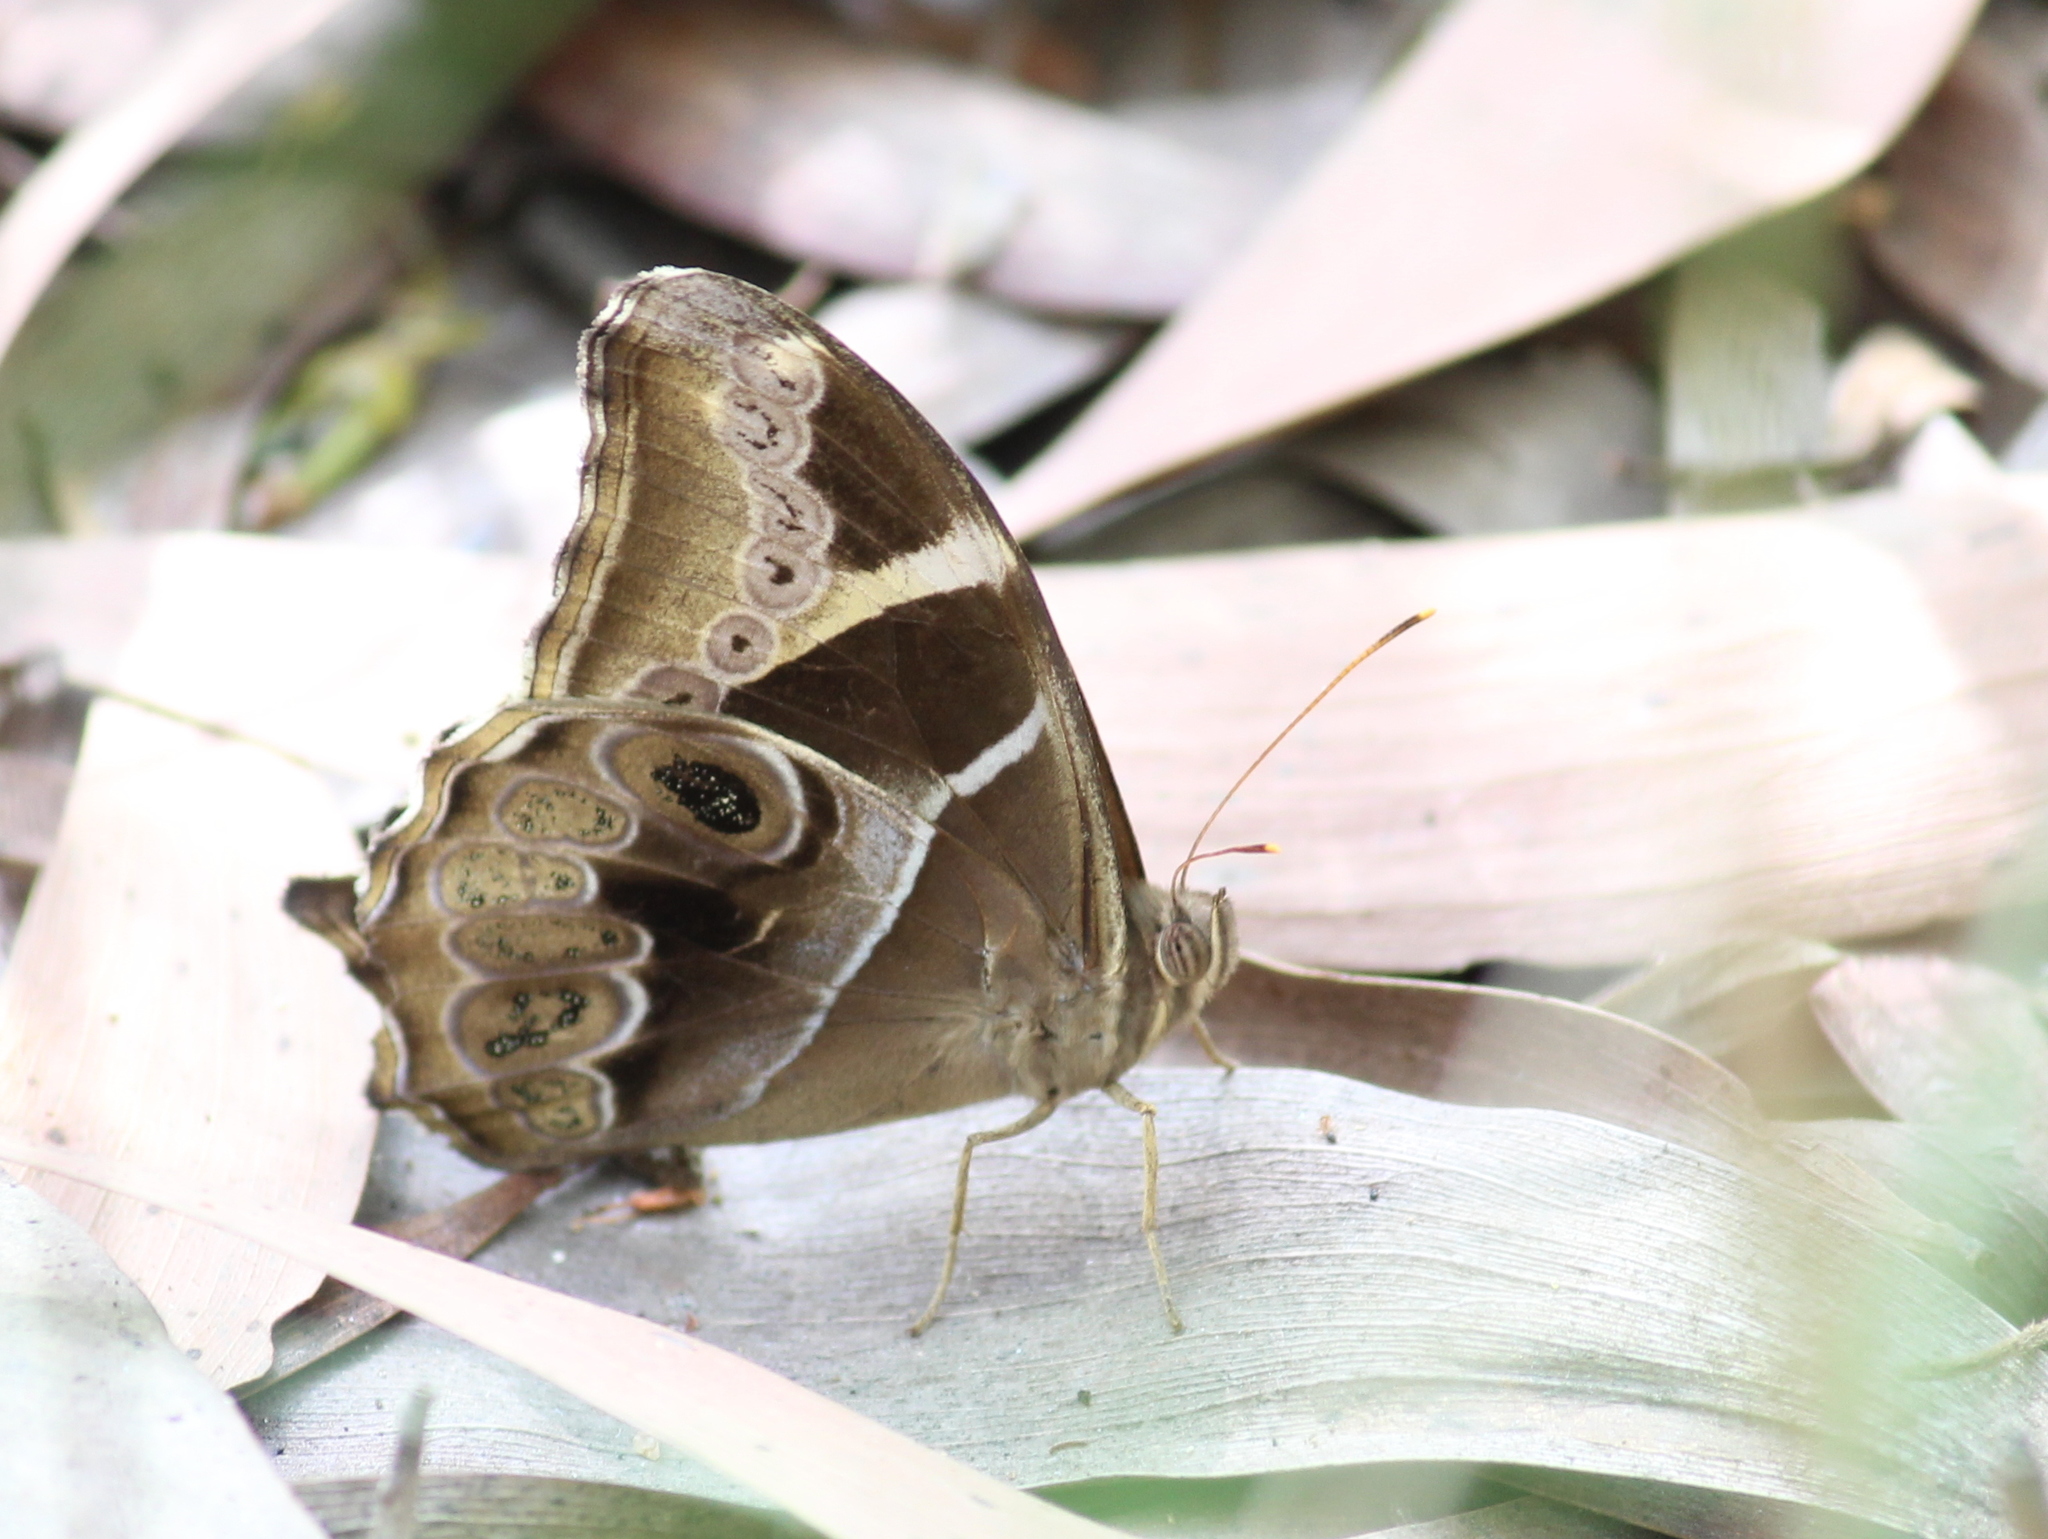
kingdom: Animalia
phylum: Arthropoda
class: Insecta
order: Lepidoptera
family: Nymphalidae
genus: Lethe
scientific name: Lethe europa
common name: Bamboo treebrown
